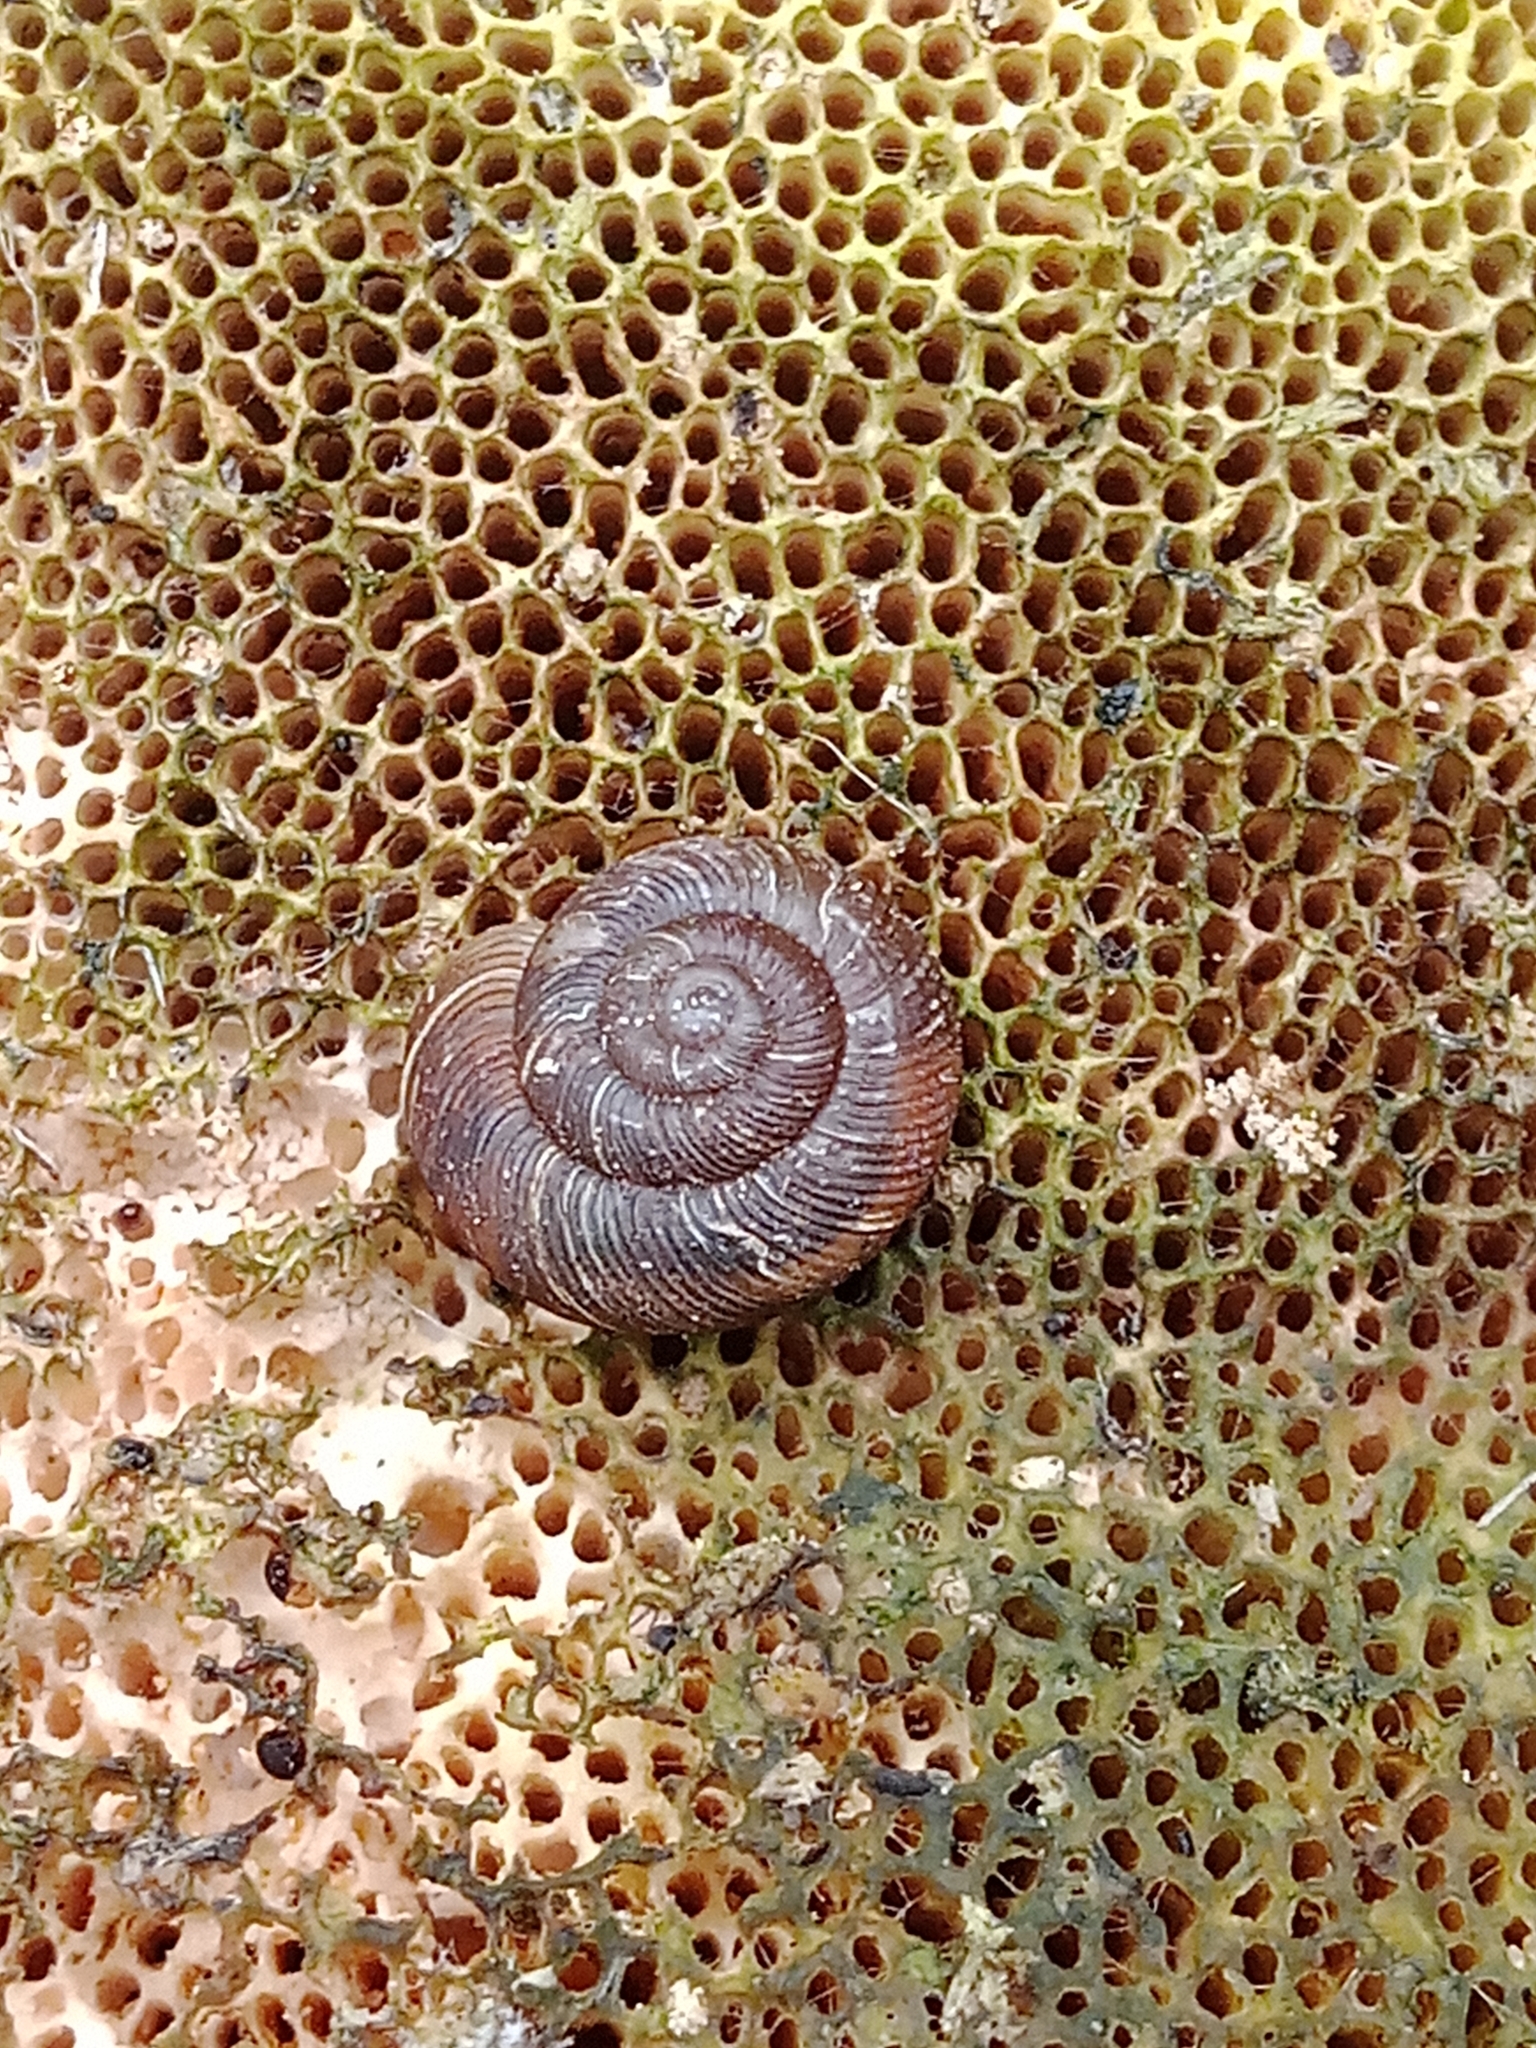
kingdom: Animalia
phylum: Mollusca
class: Gastropoda
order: Stylommatophora
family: Discidae
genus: Discus
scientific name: Discus ruderatus
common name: Brown disc snail
